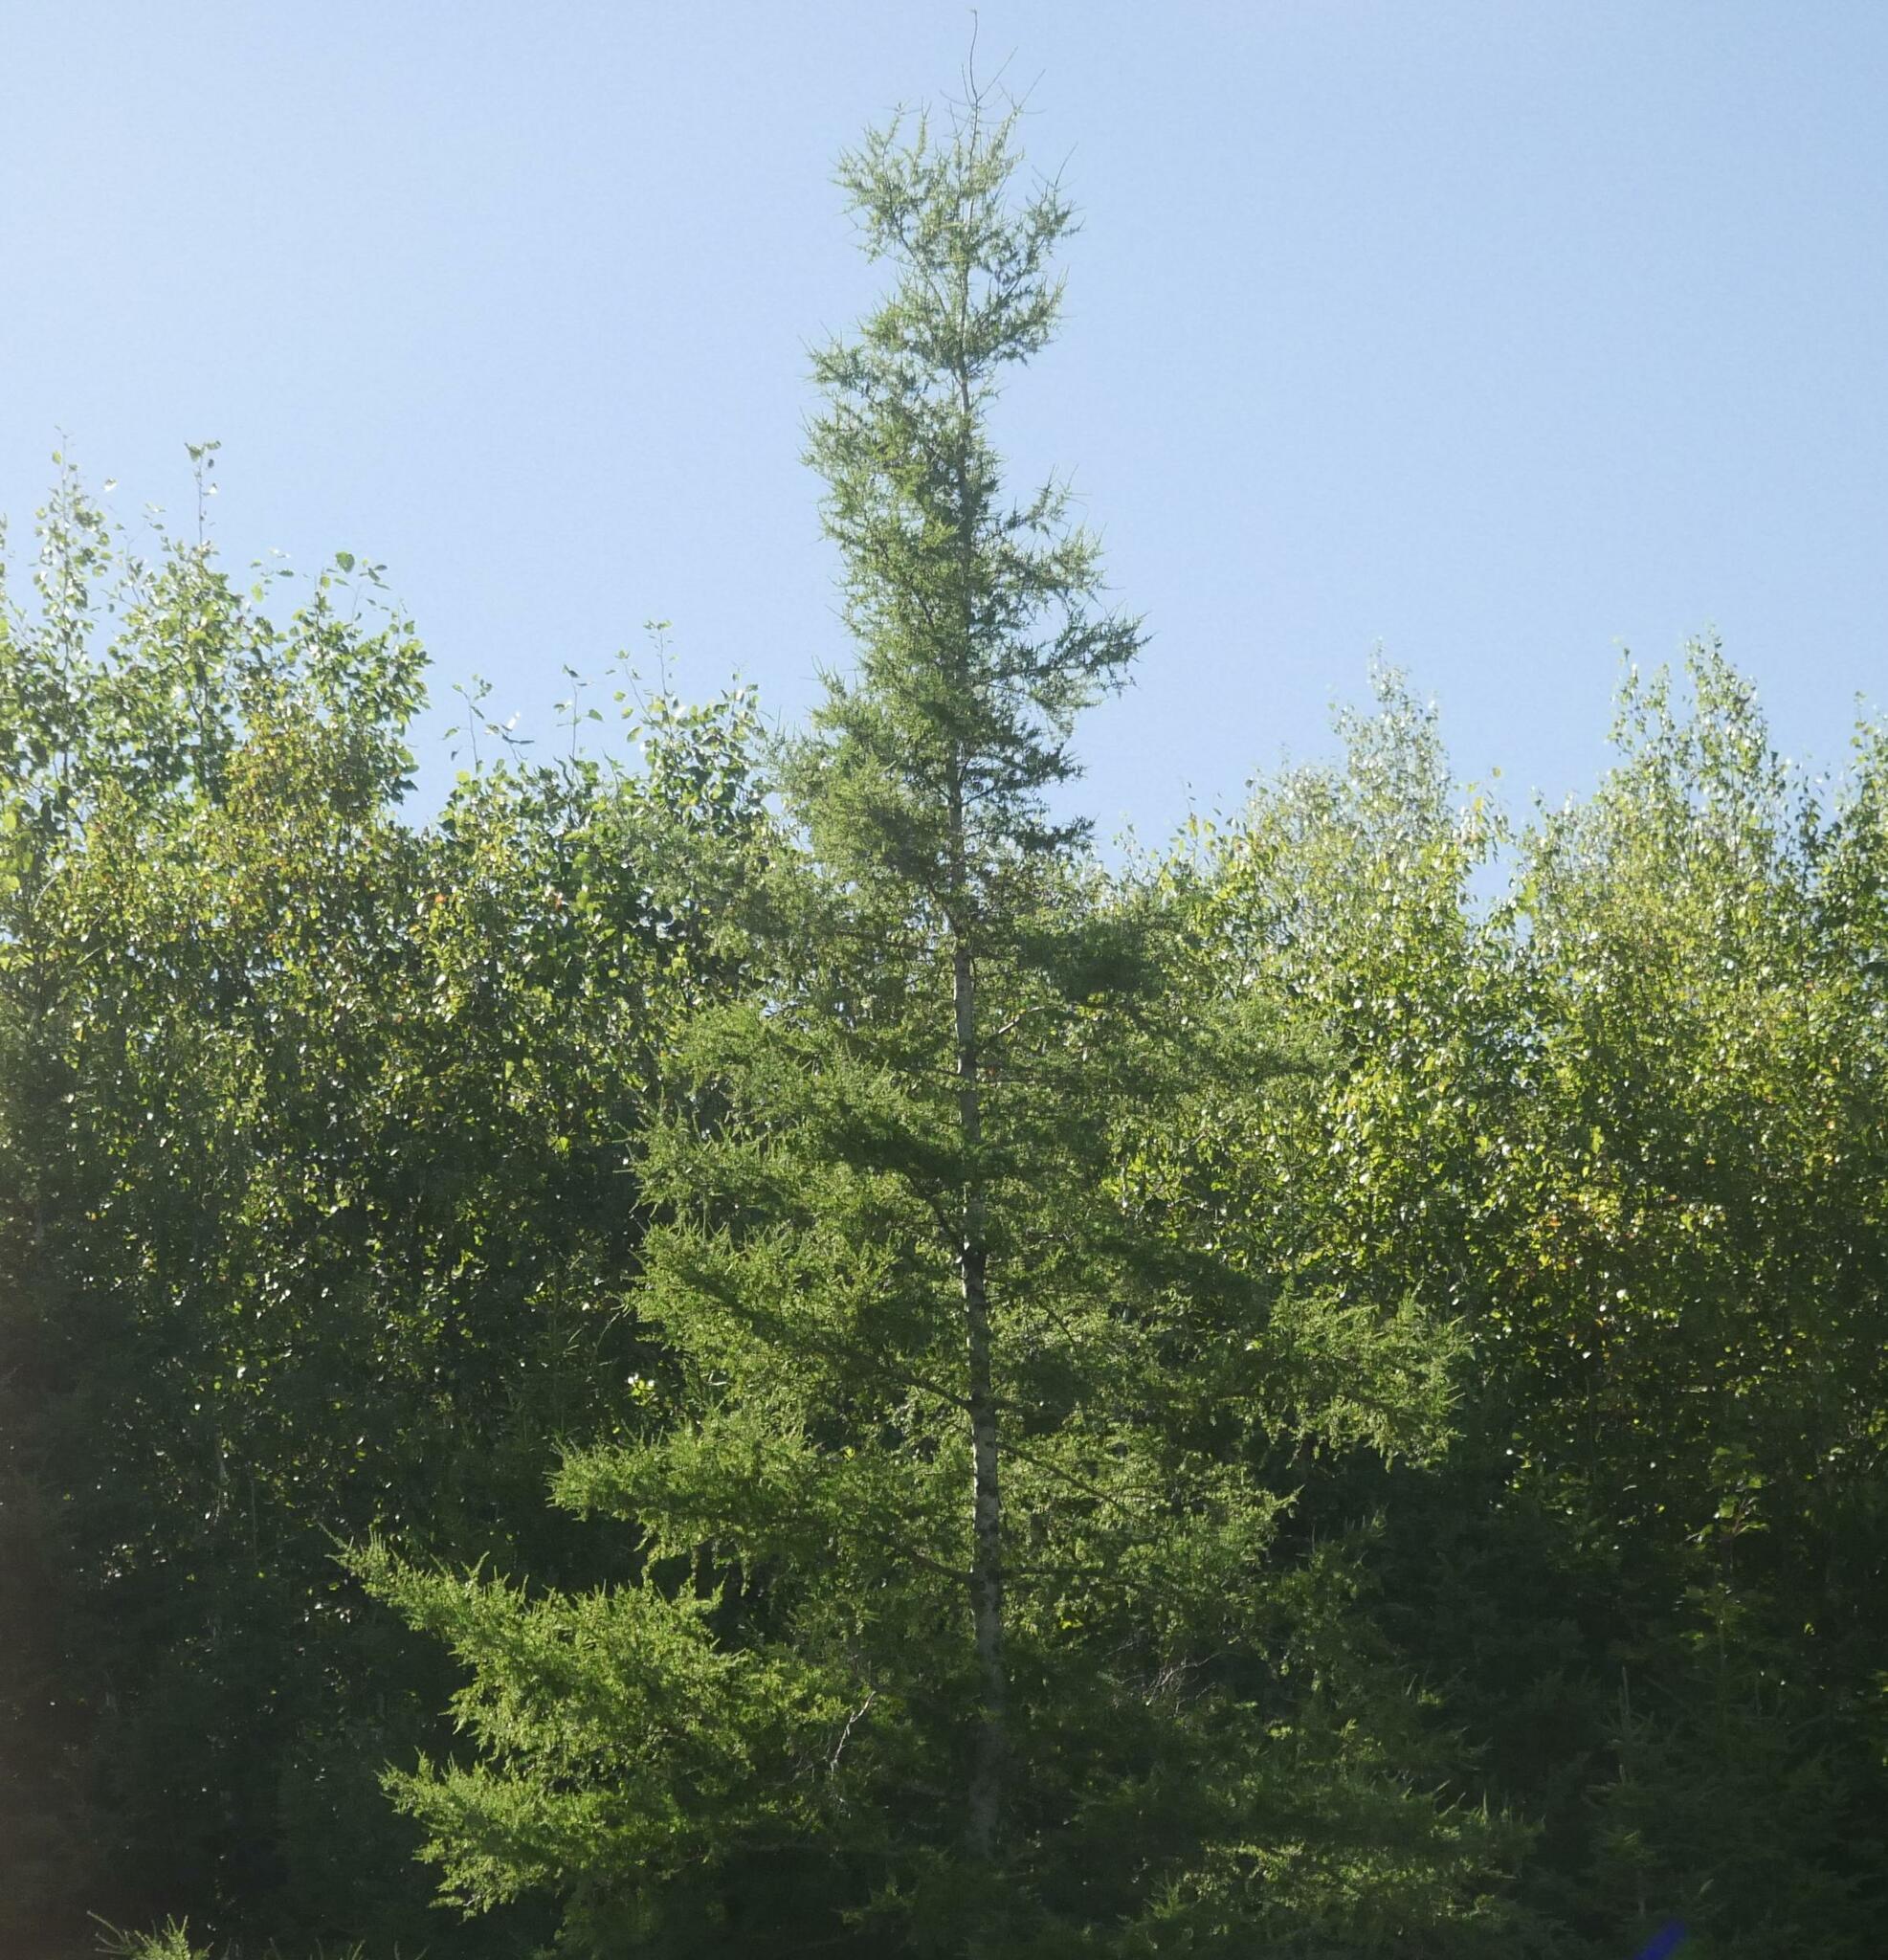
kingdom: Plantae
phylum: Tracheophyta
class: Pinopsida
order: Pinales
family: Pinaceae
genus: Larix
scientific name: Larix laricina
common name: American larch
